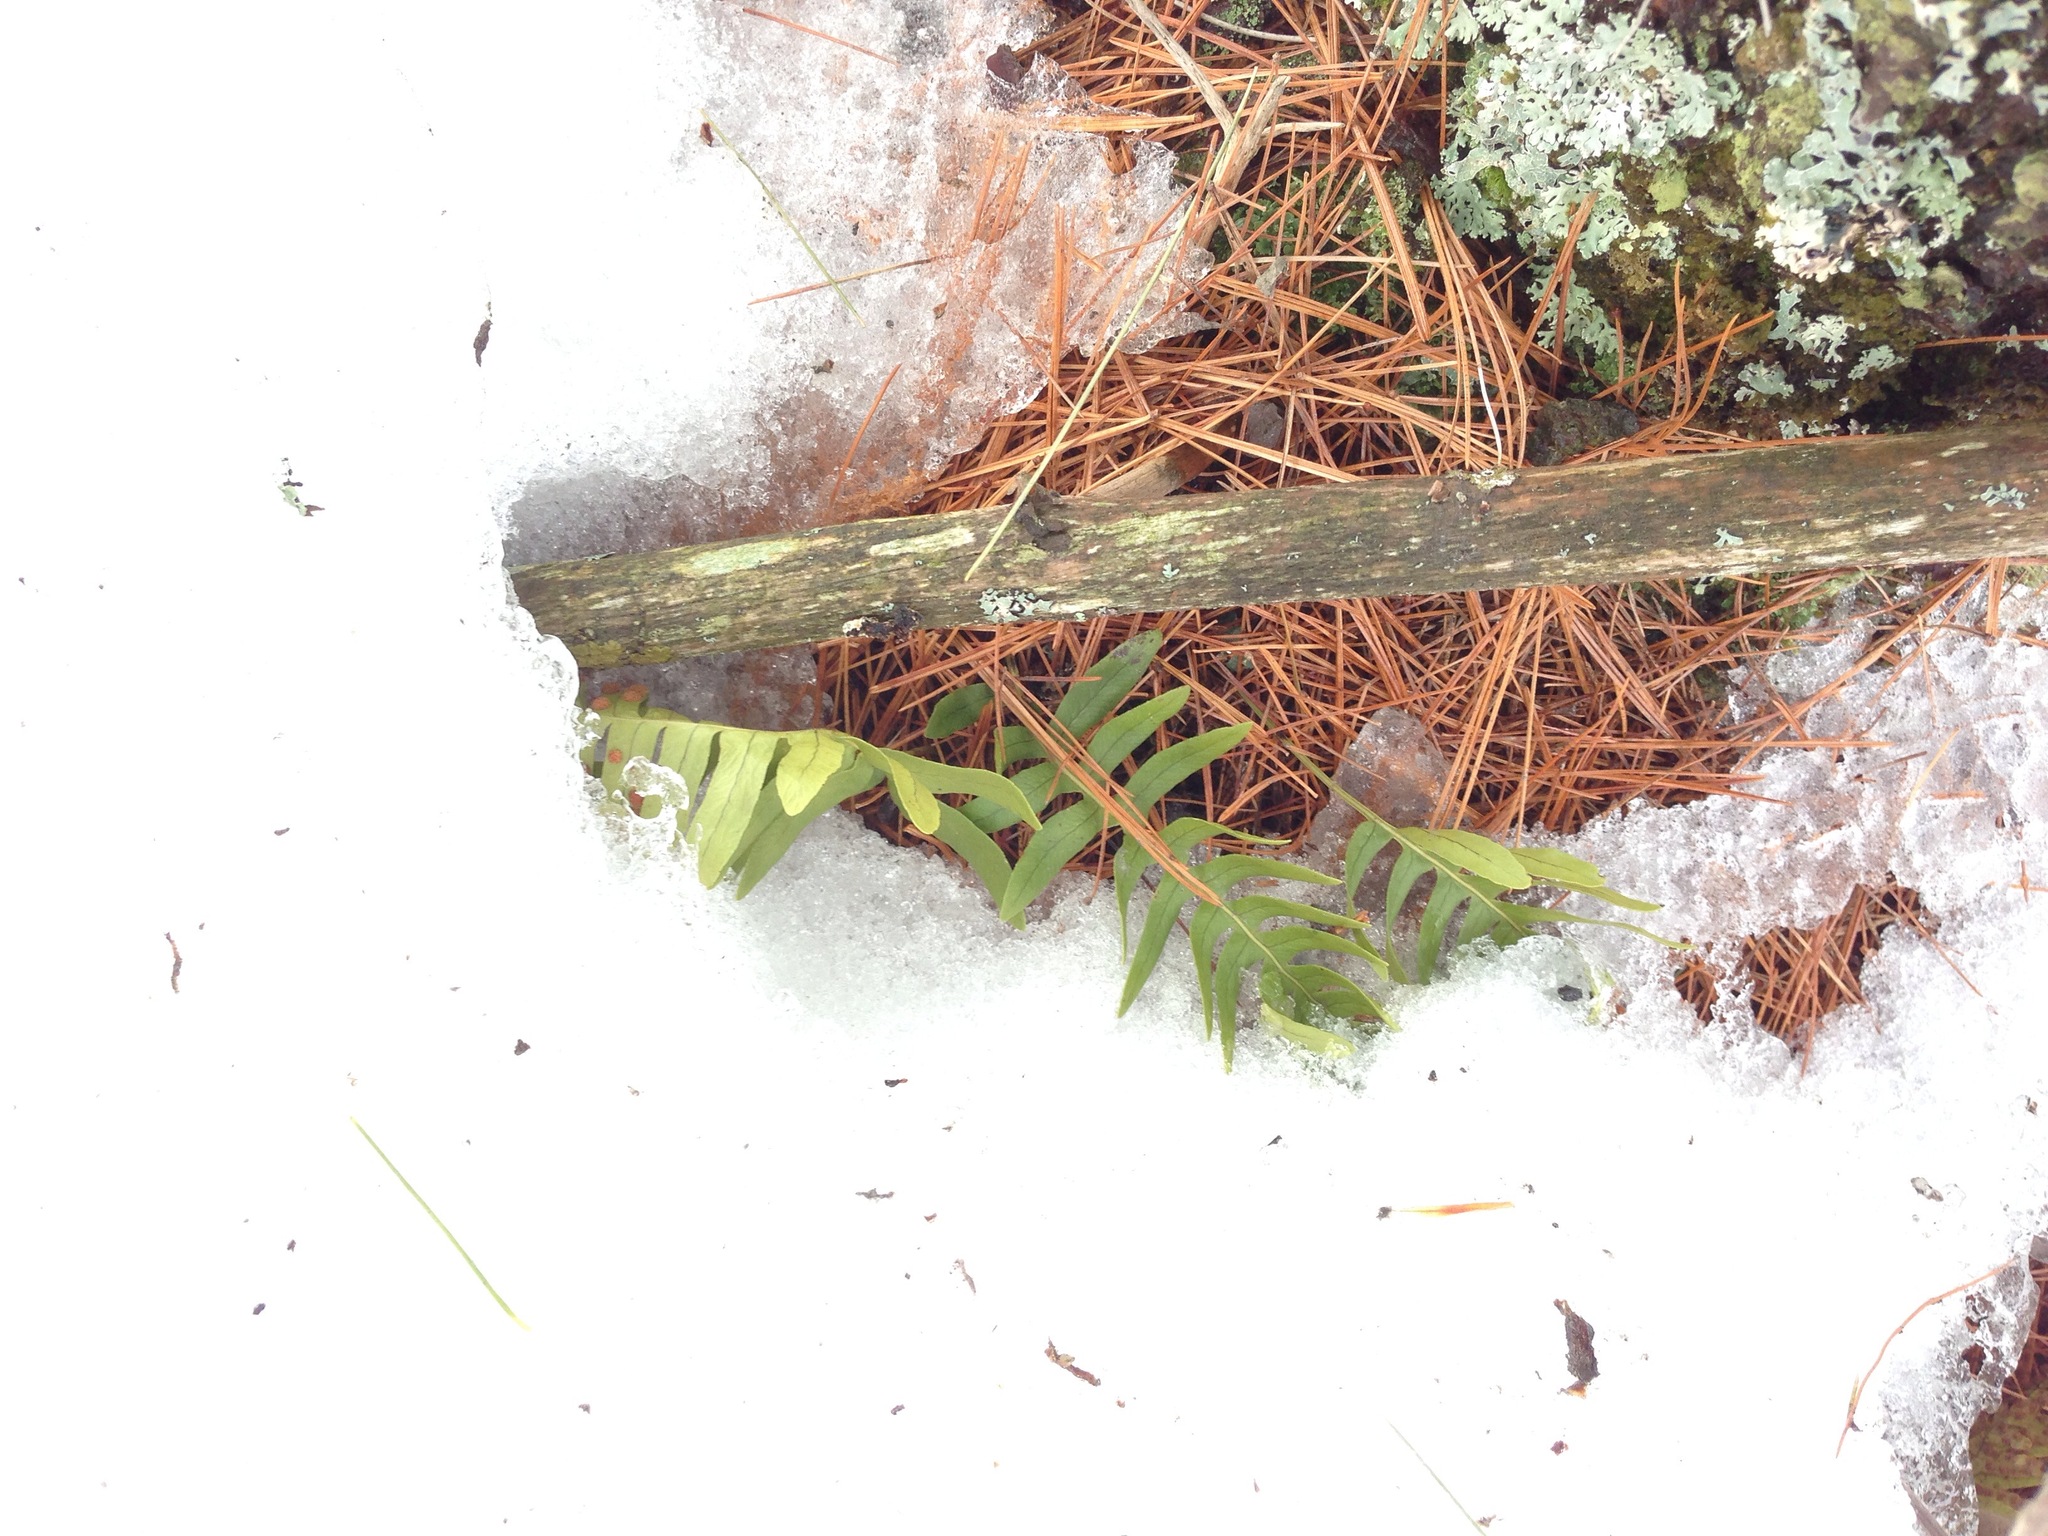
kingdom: Plantae
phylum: Tracheophyta
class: Polypodiopsida
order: Polypodiales
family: Polypodiaceae
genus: Polypodium
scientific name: Polypodium virginianum
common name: American wall fern
